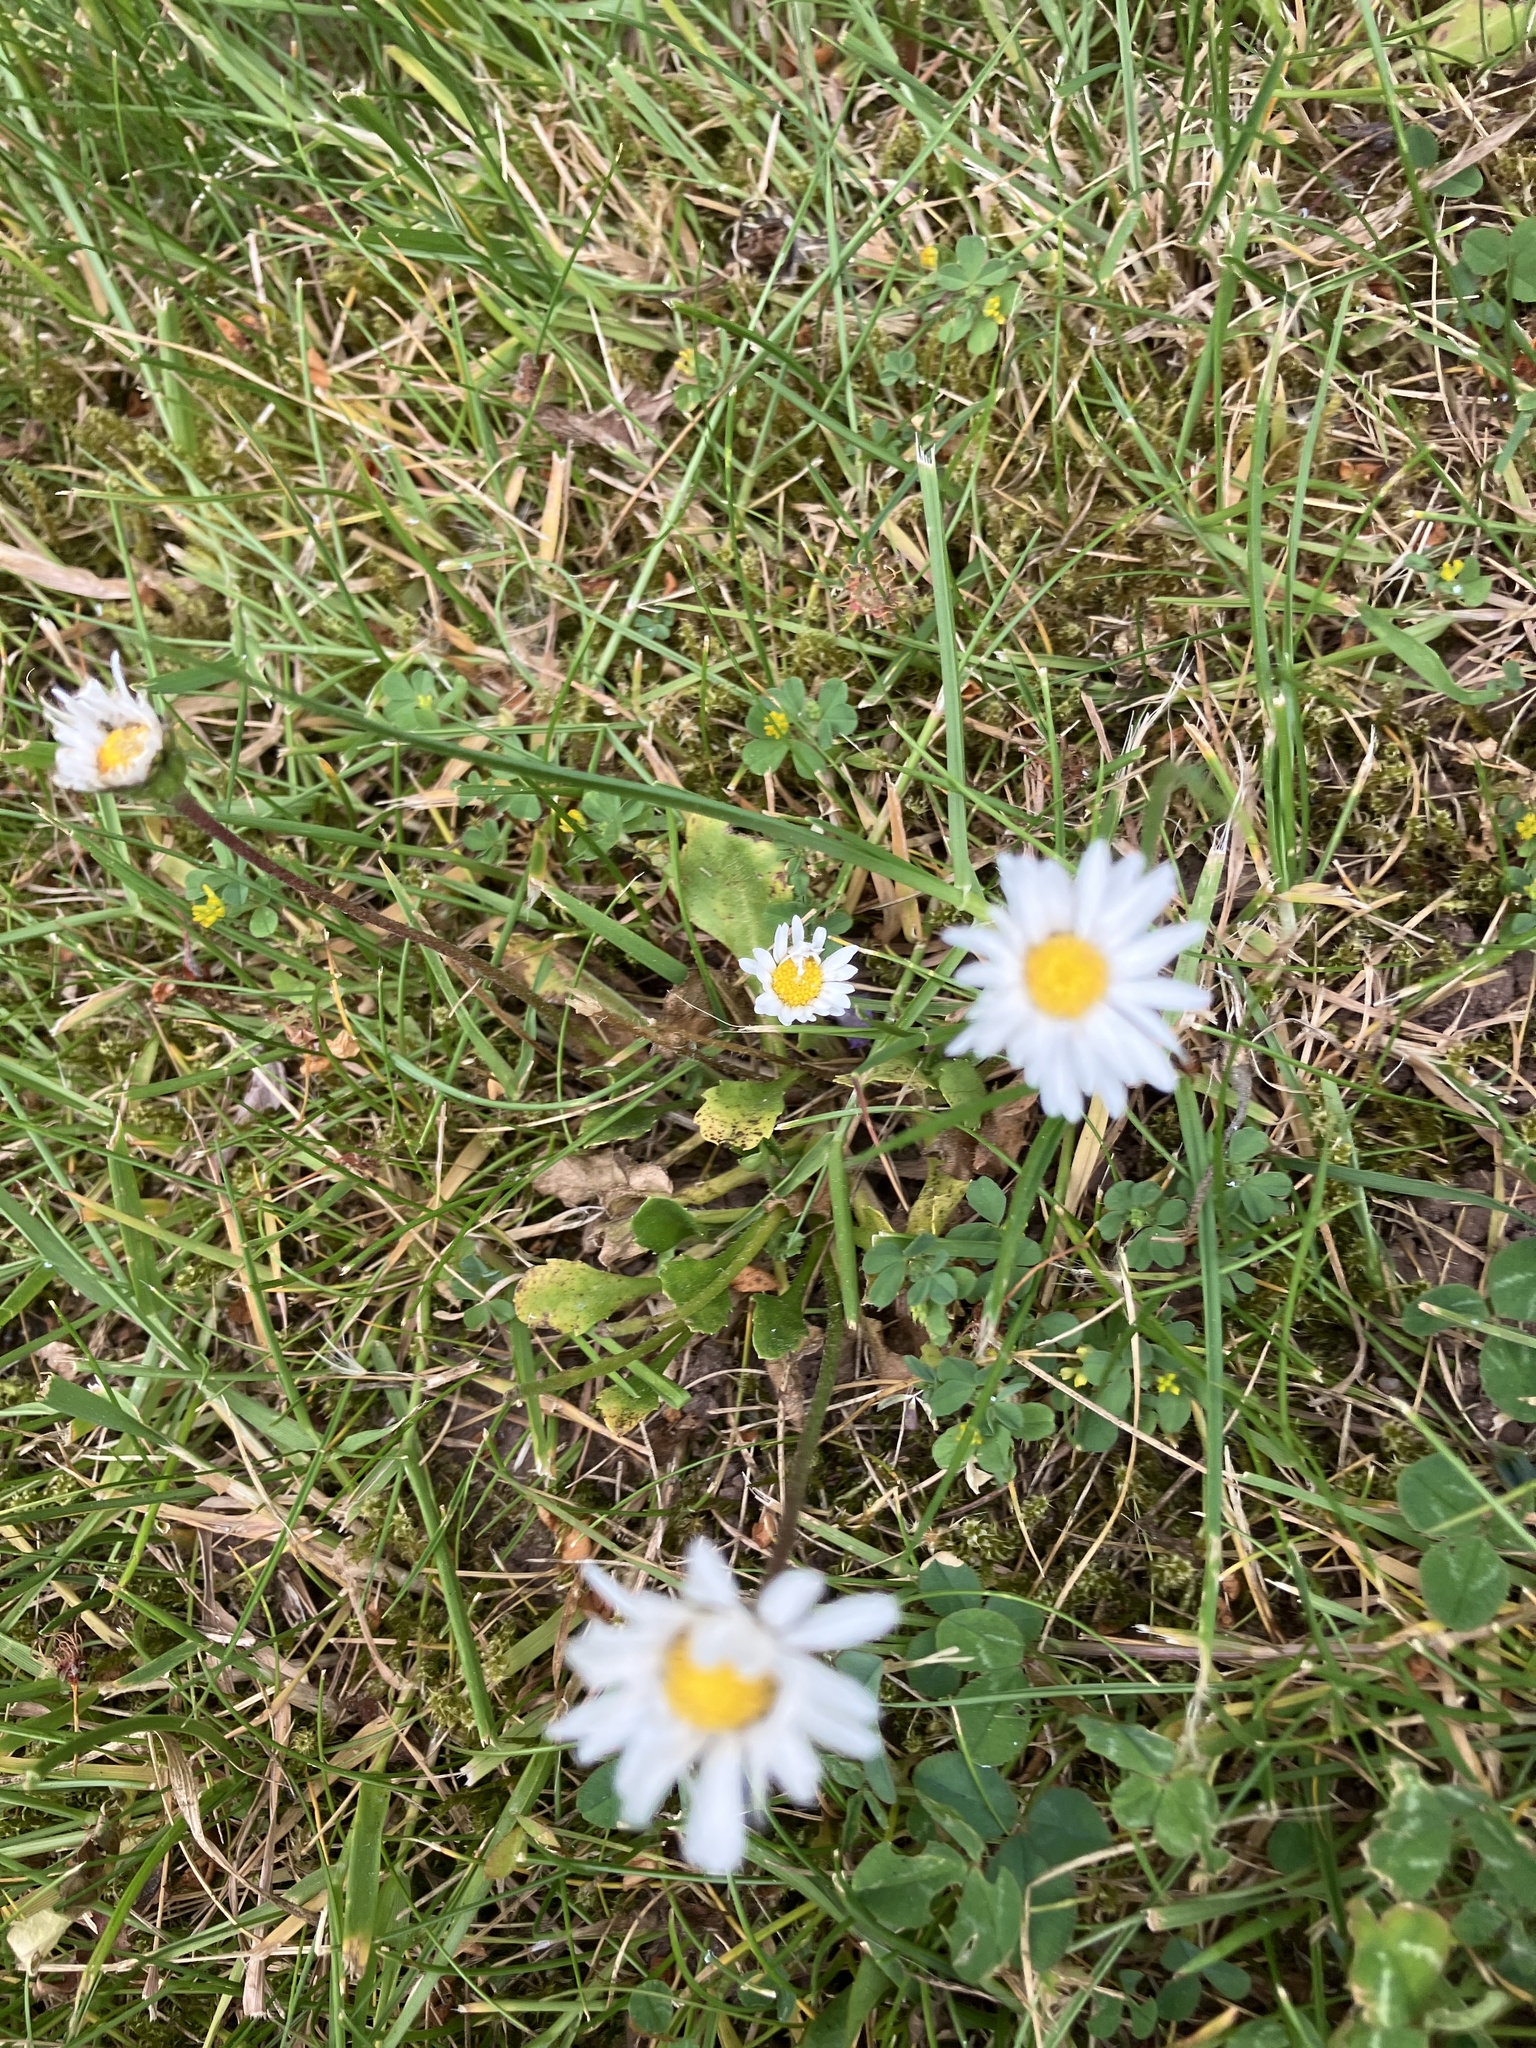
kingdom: Plantae
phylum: Tracheophyta
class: Magnoliopsida
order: Asterales
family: Asteraceae
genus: Bellis
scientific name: Bellis perennis
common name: Lawndaisy
